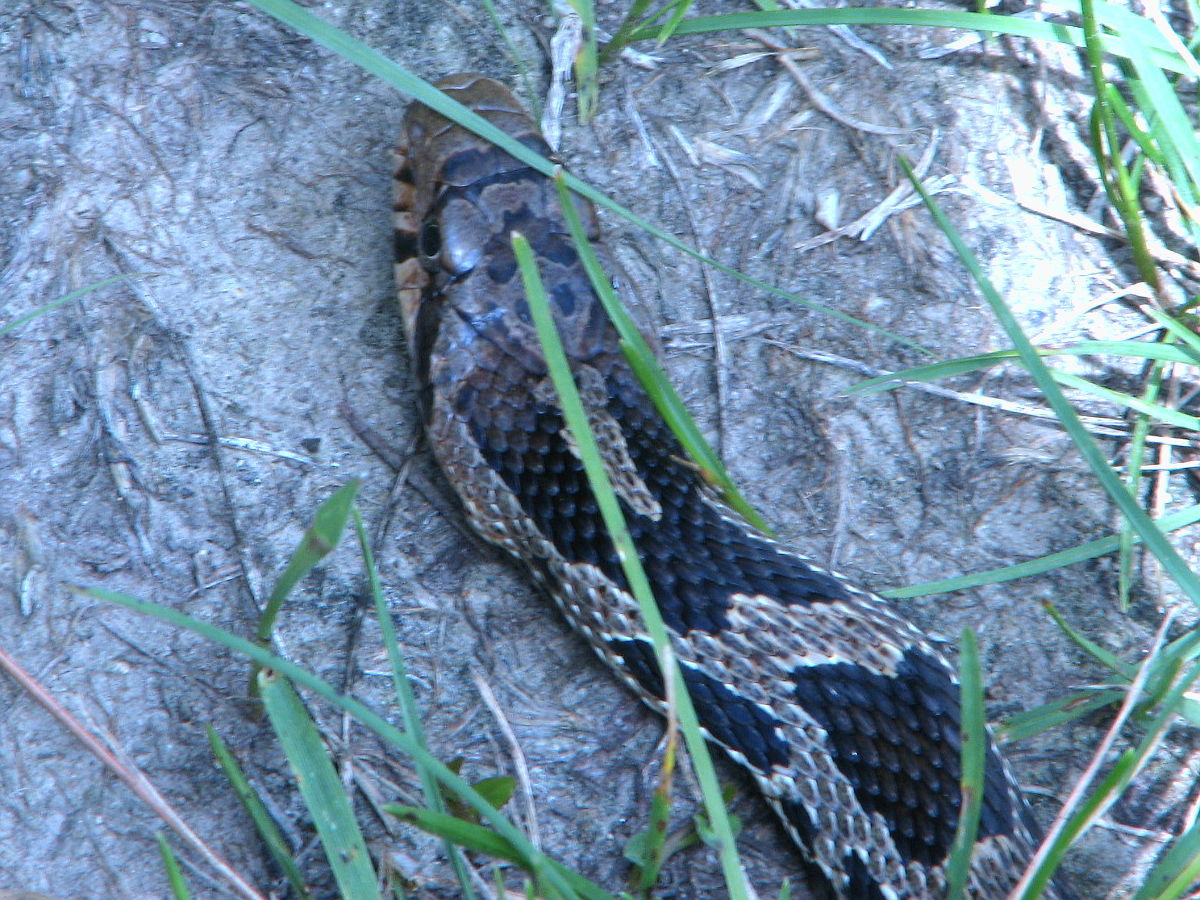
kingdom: Animalia
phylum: Chordata
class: Squamata
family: Colubridae
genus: Pantherophis
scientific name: Pantherophis vulpinus
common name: Eastern fox snake
